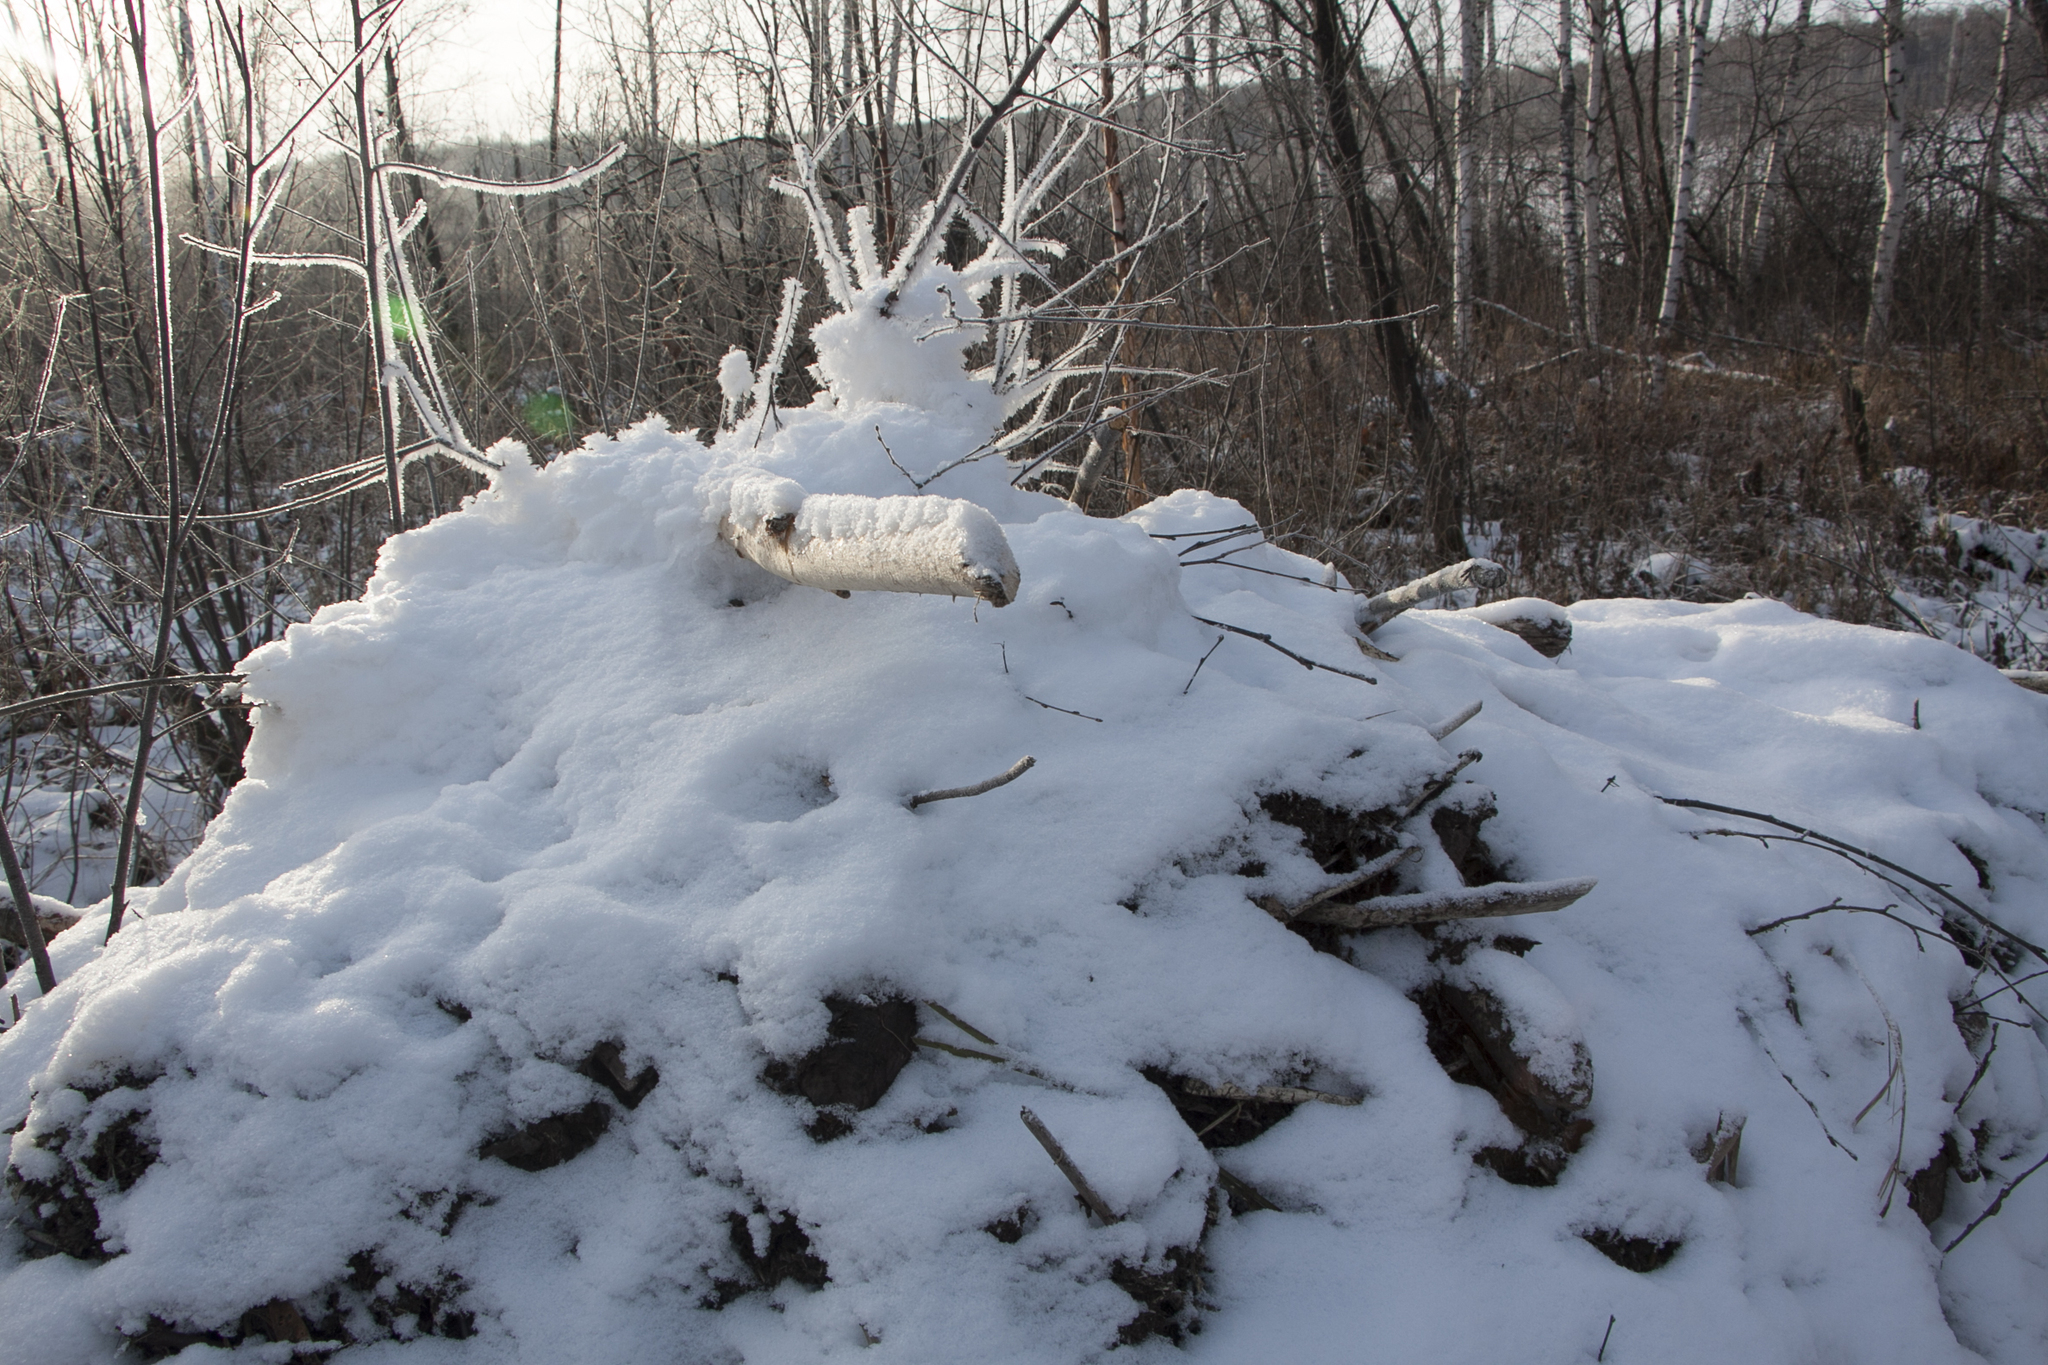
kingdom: Animalia
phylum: Chordata
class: Mammalia
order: Rodentia
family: Castoridae
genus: Castor
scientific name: Castor fiber
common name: Eurasian beaver
